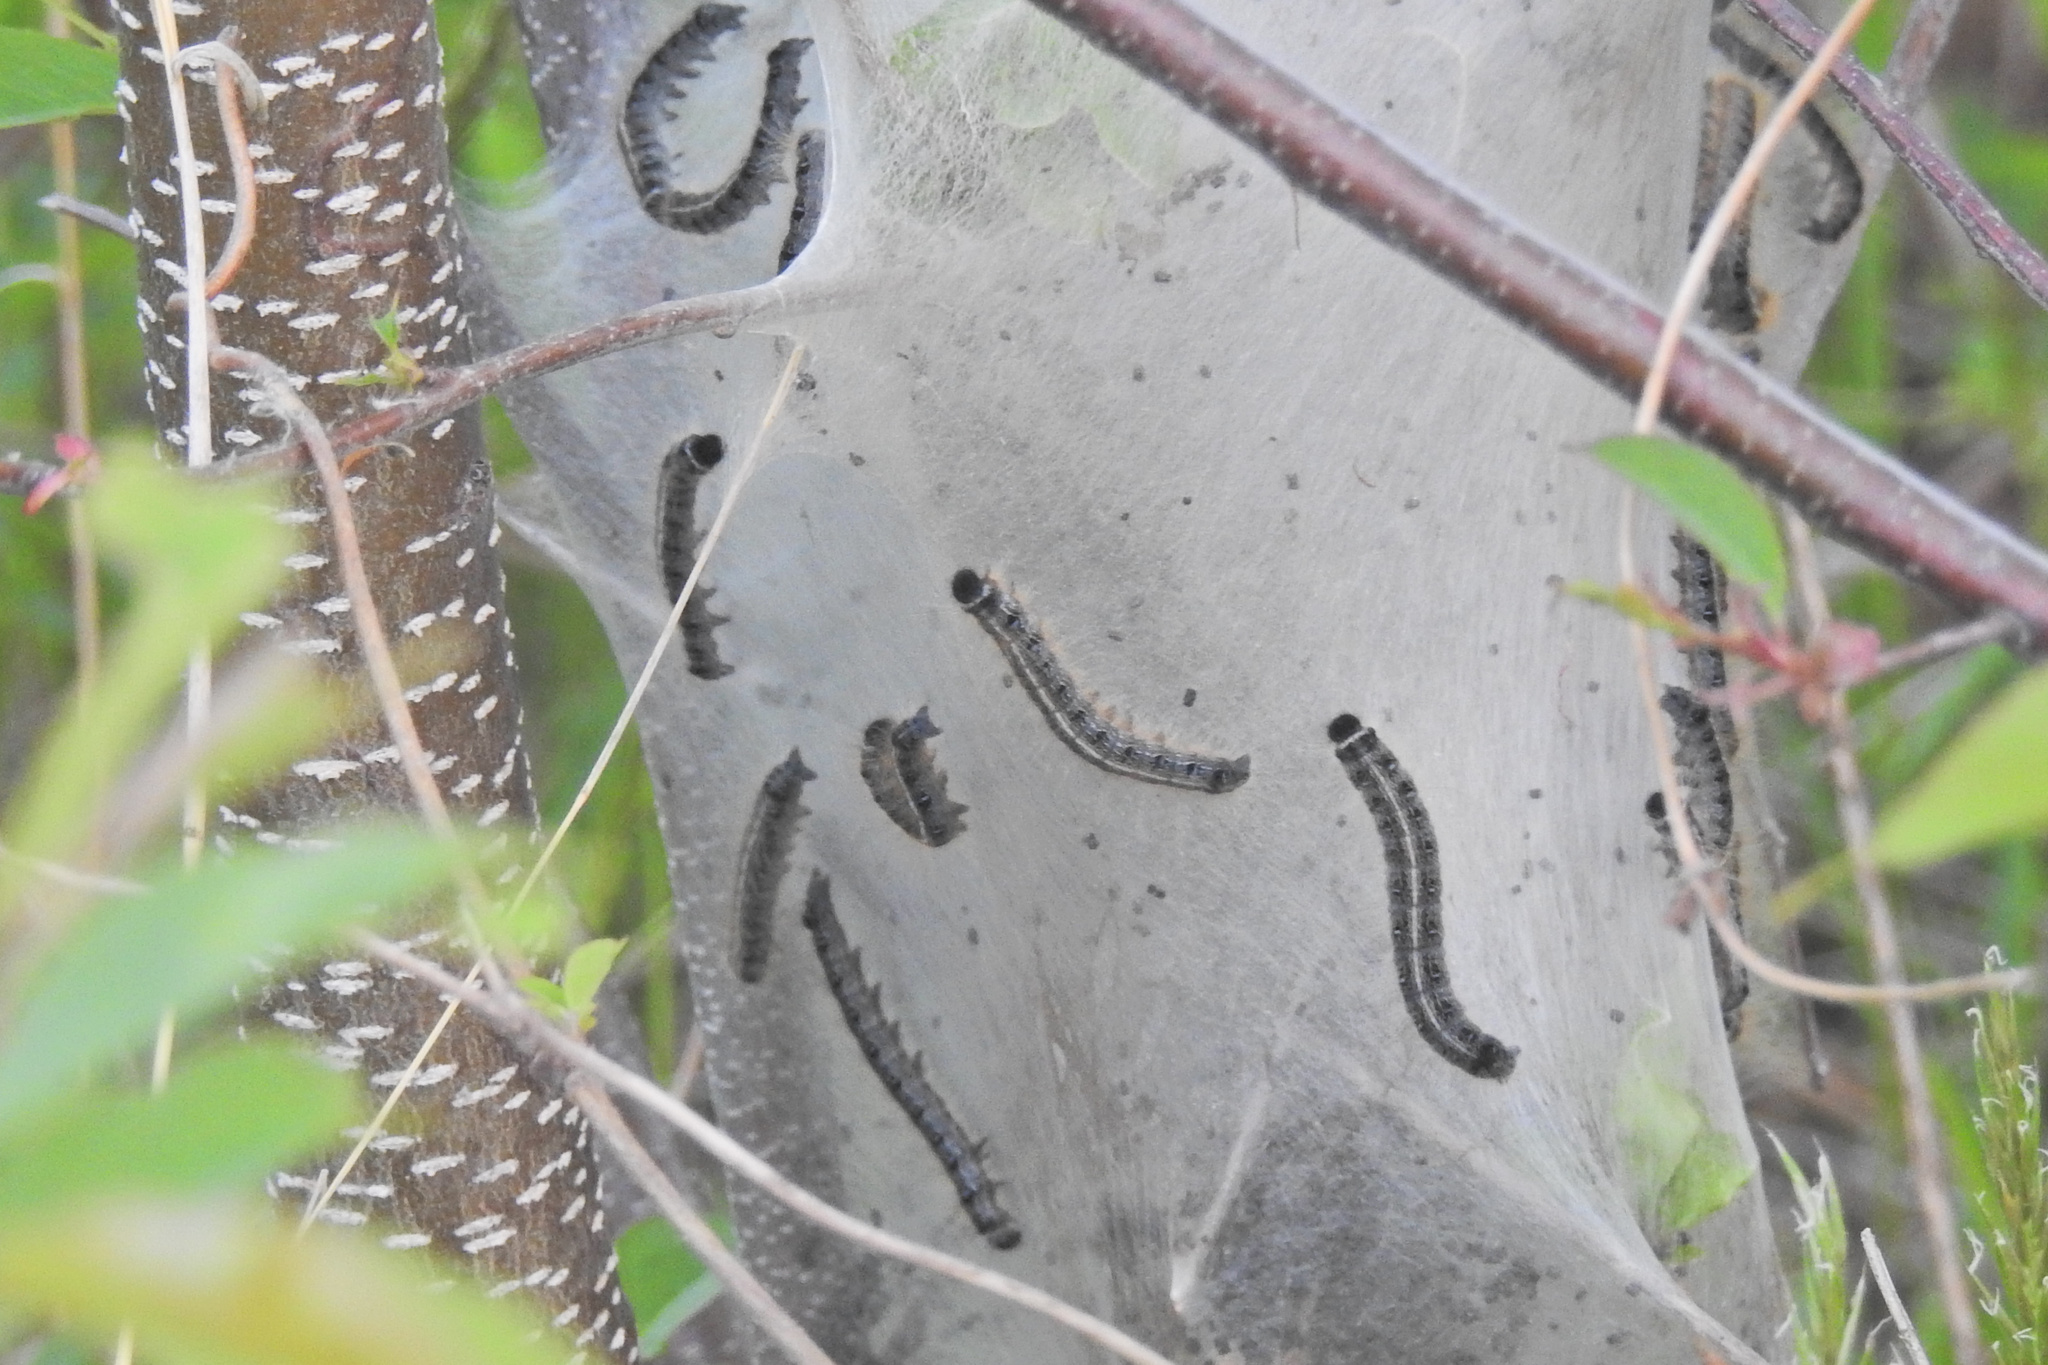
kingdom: Animalia
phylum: Arthropoda
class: Insecta
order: Lepidoptera
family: Lasiocampidae
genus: Malacosoma
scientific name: Malacosoma americana
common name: Eastern tent caterpillar moth
